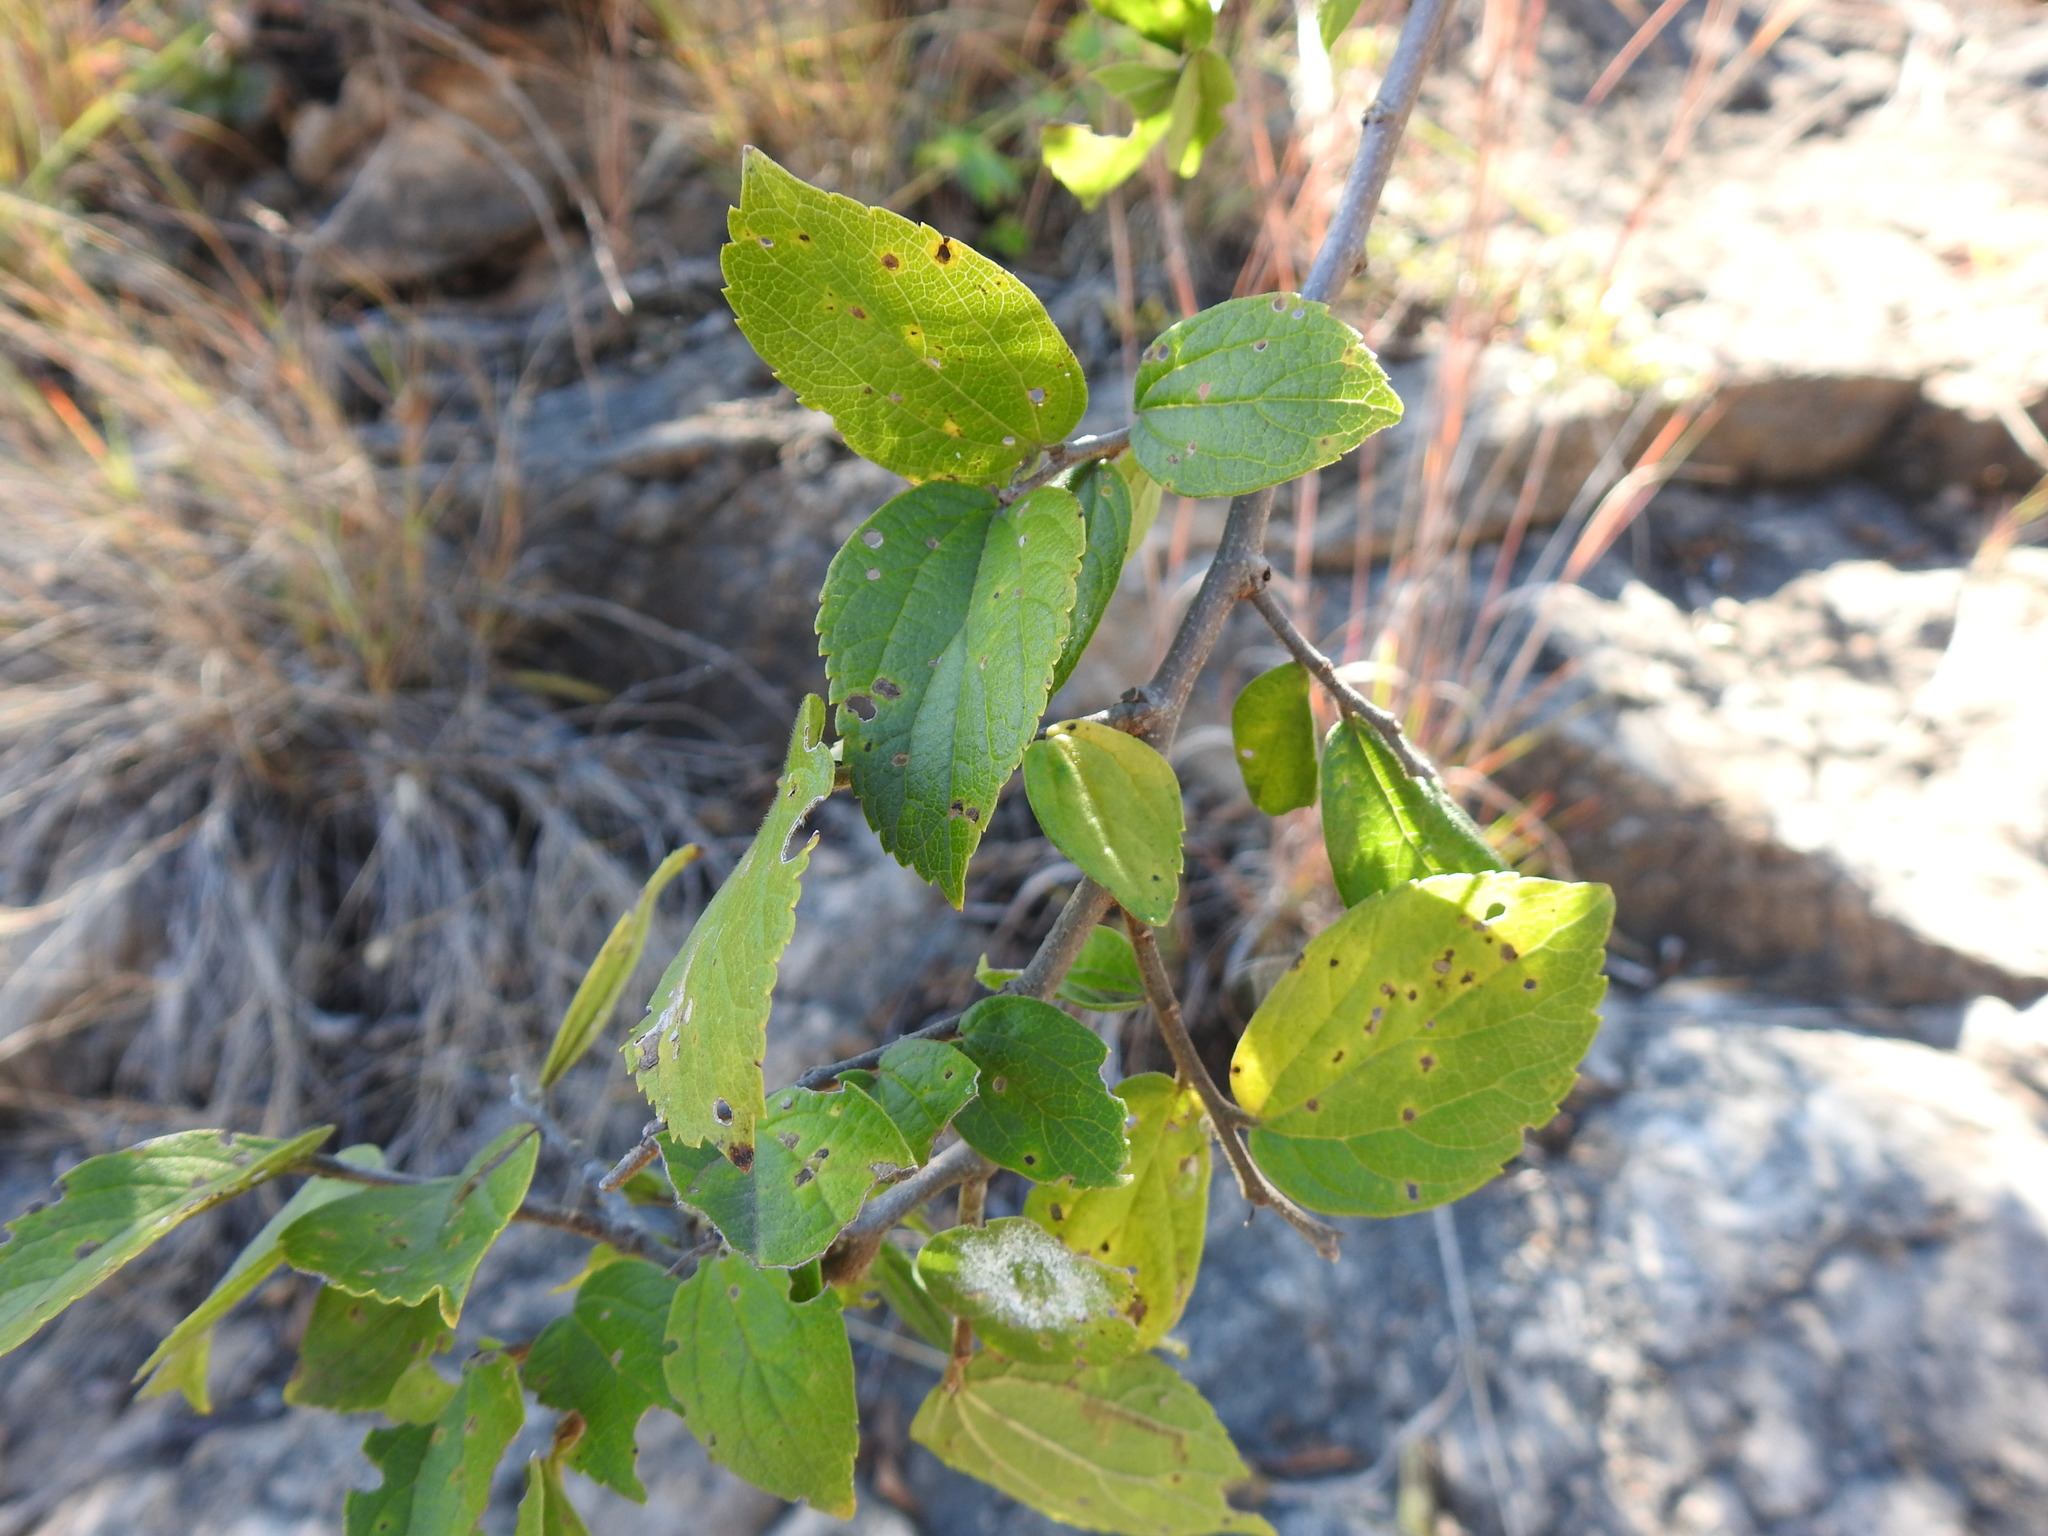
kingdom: Plantae
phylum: Tracheophyta
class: Magnoliopsida
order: Rosales
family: Cannabaceae
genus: Celtis
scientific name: Celtis africana
